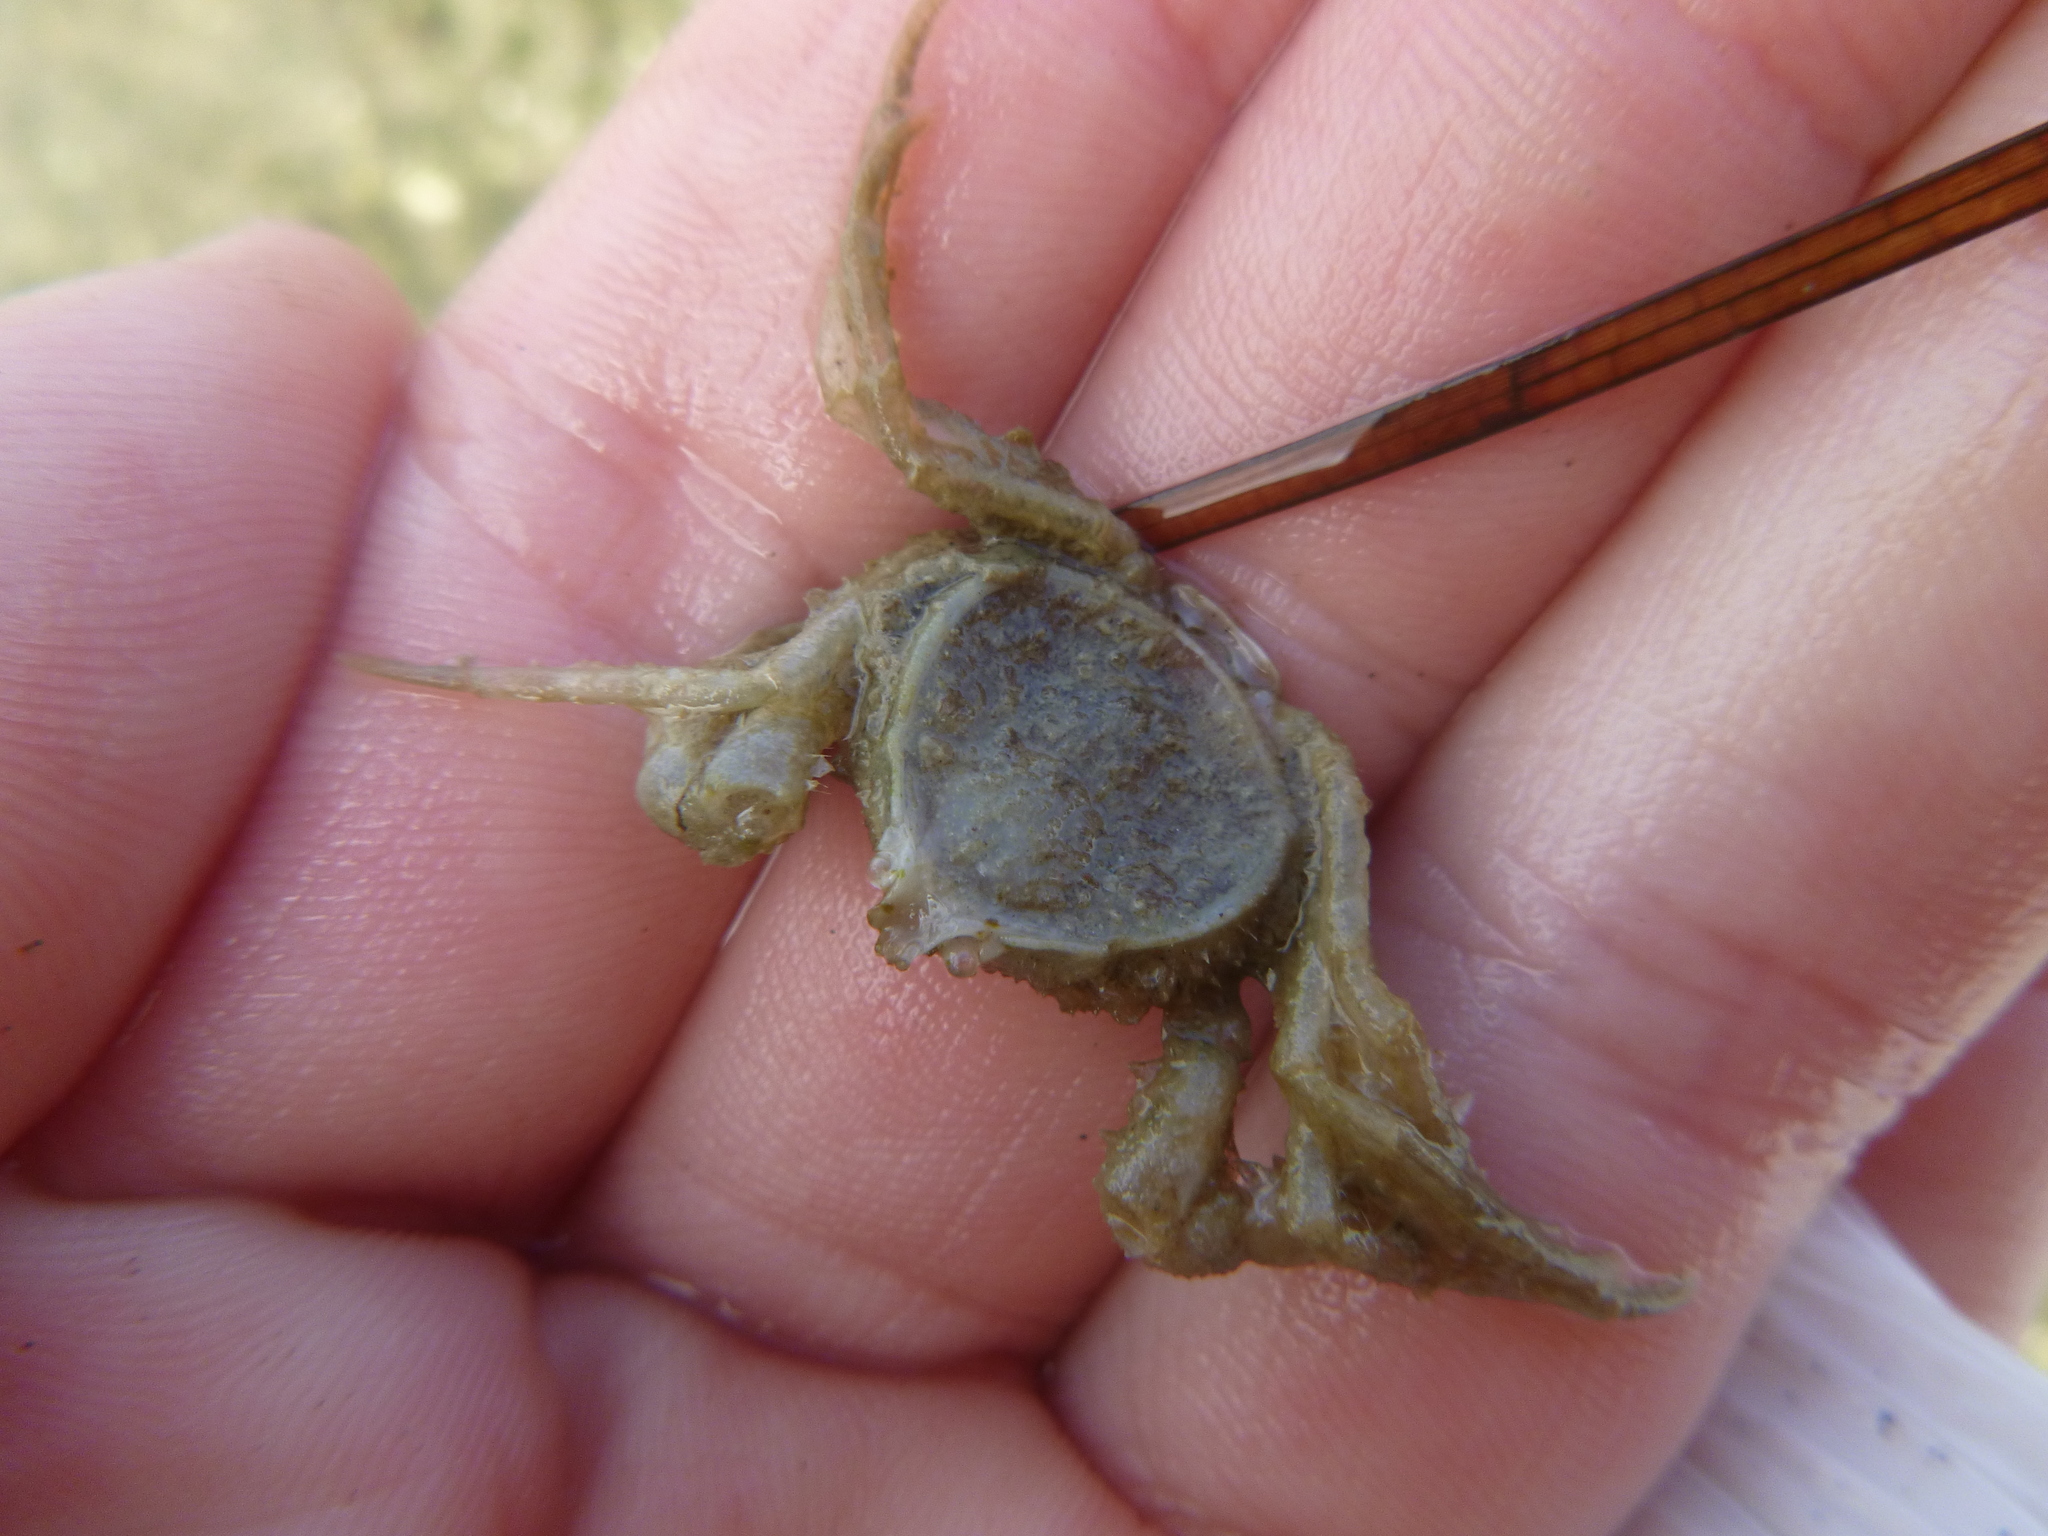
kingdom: Animalia
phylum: Arthropoda
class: Malacostraca
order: Decapoda
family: Hymenosomatidae
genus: Halicarcinus
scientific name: Halicarcinus whitei
